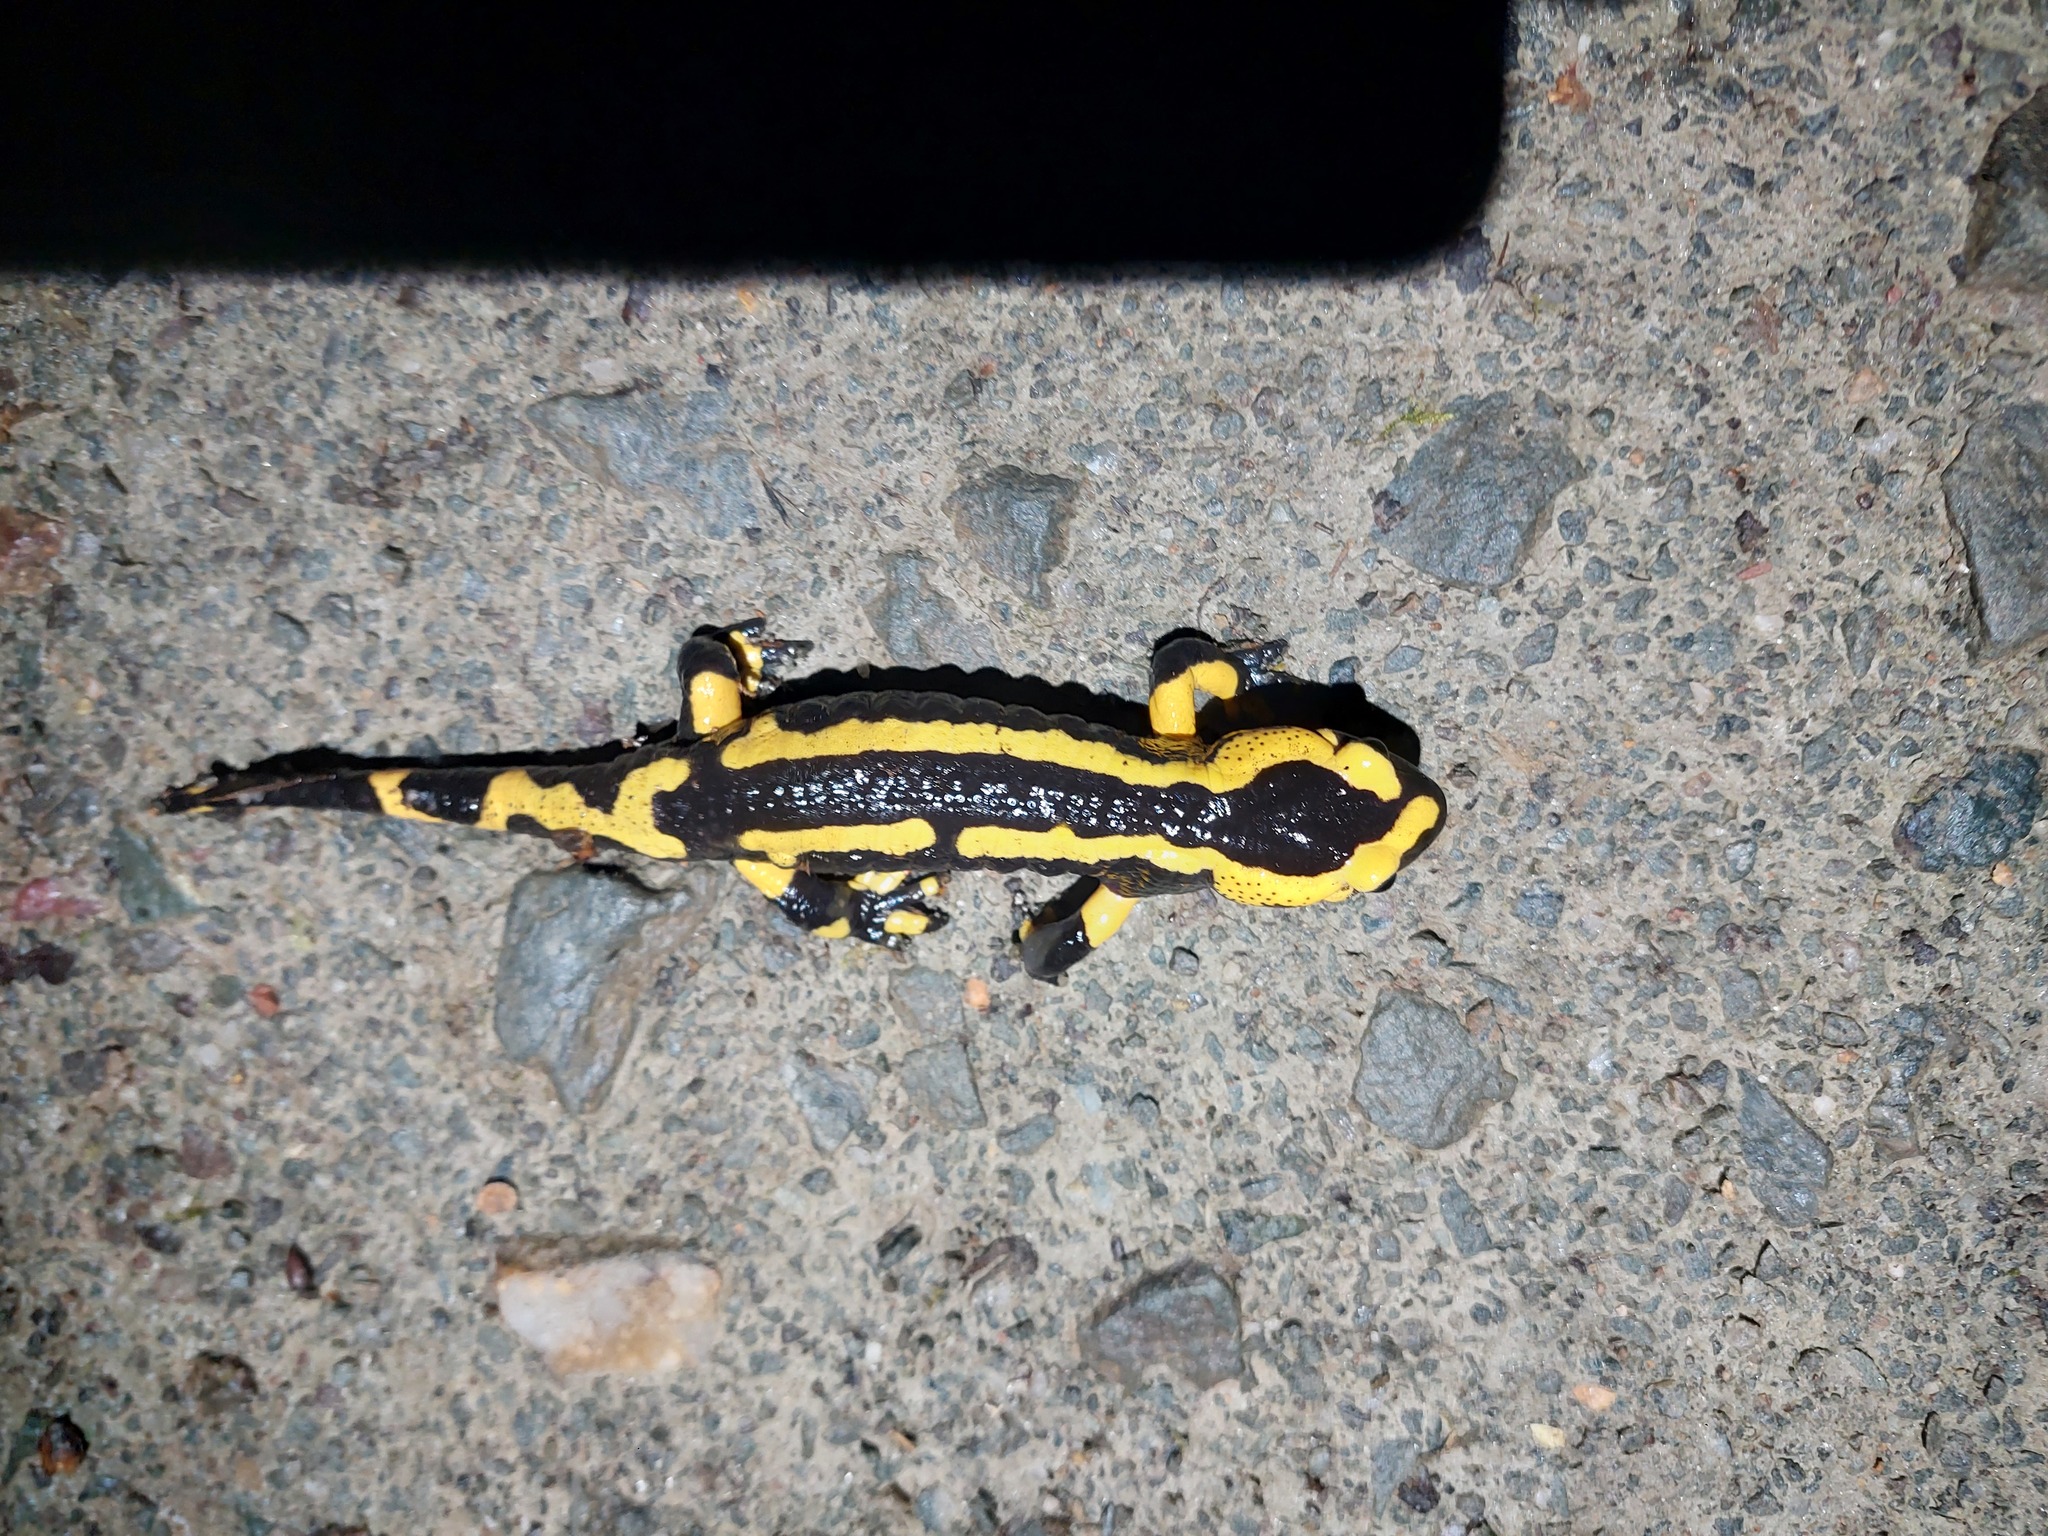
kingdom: Animalia
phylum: Chordata
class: Amphibia
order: Caudata
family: Salamandridae
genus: Salamandra
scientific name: Salamandra salamandra
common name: Fire salamander
